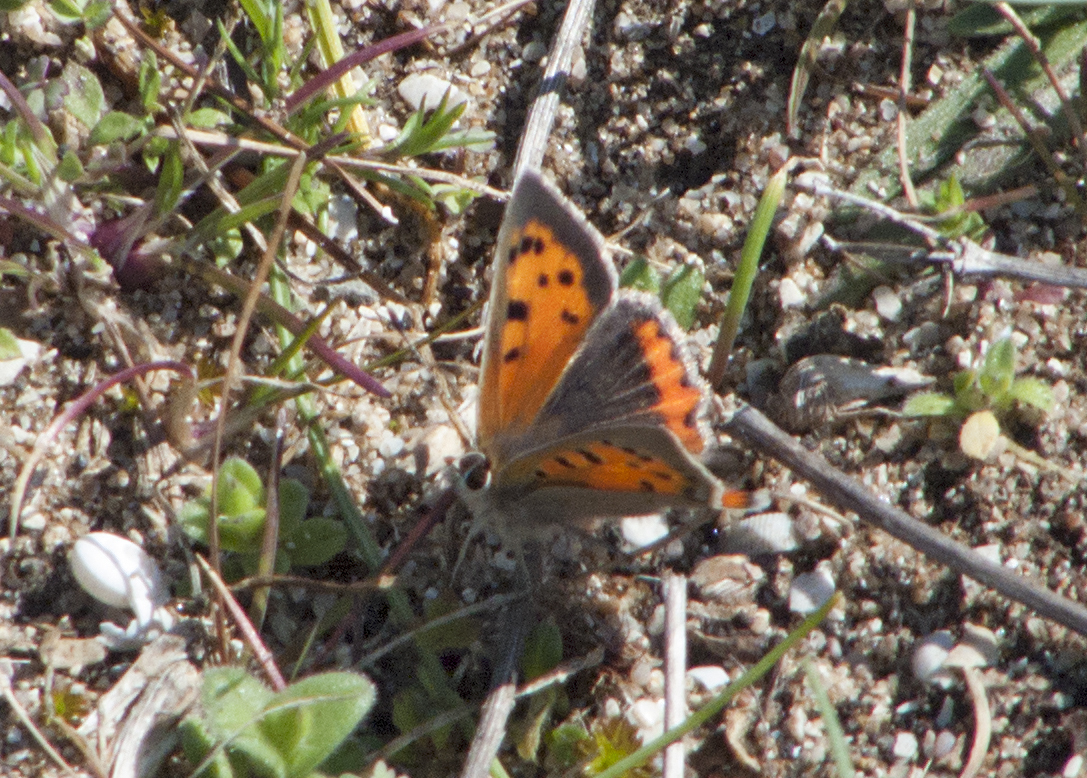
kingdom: Animalia
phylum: Arthropoda
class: Insecta
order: Lepidoptera
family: Lycaenidae
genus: Lycaena
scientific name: Lycaena phlaeas
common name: Small copper
